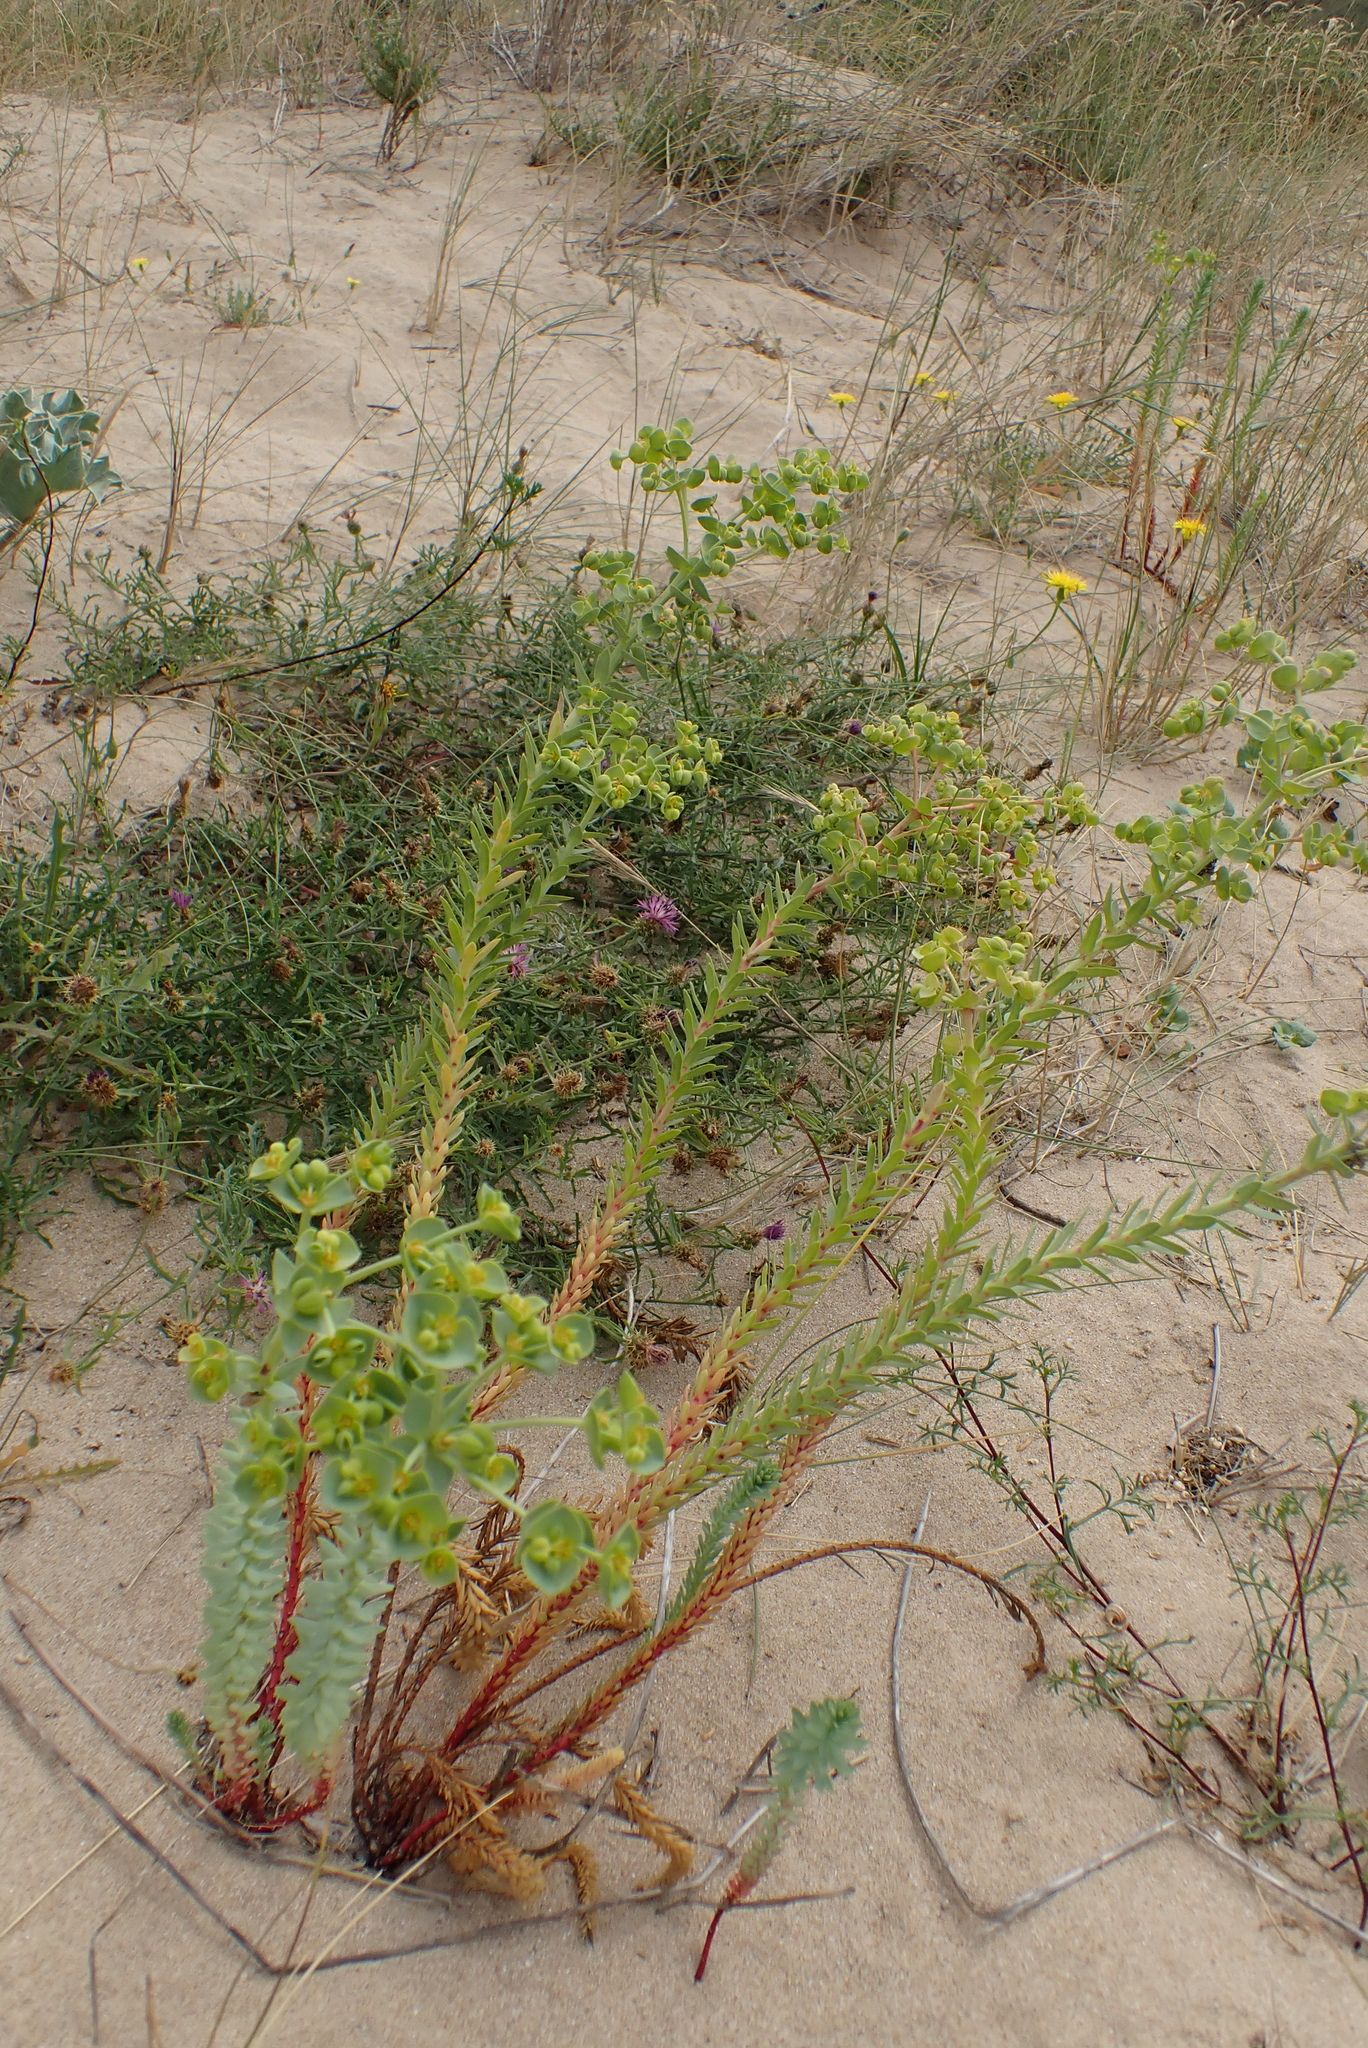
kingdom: Plantae
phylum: Tracheophyta
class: Magnoliopsida
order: Malpighiales
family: Euphorbiaceae
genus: Euphorbia
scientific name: Euphorbia paralias
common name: Sea spurge
